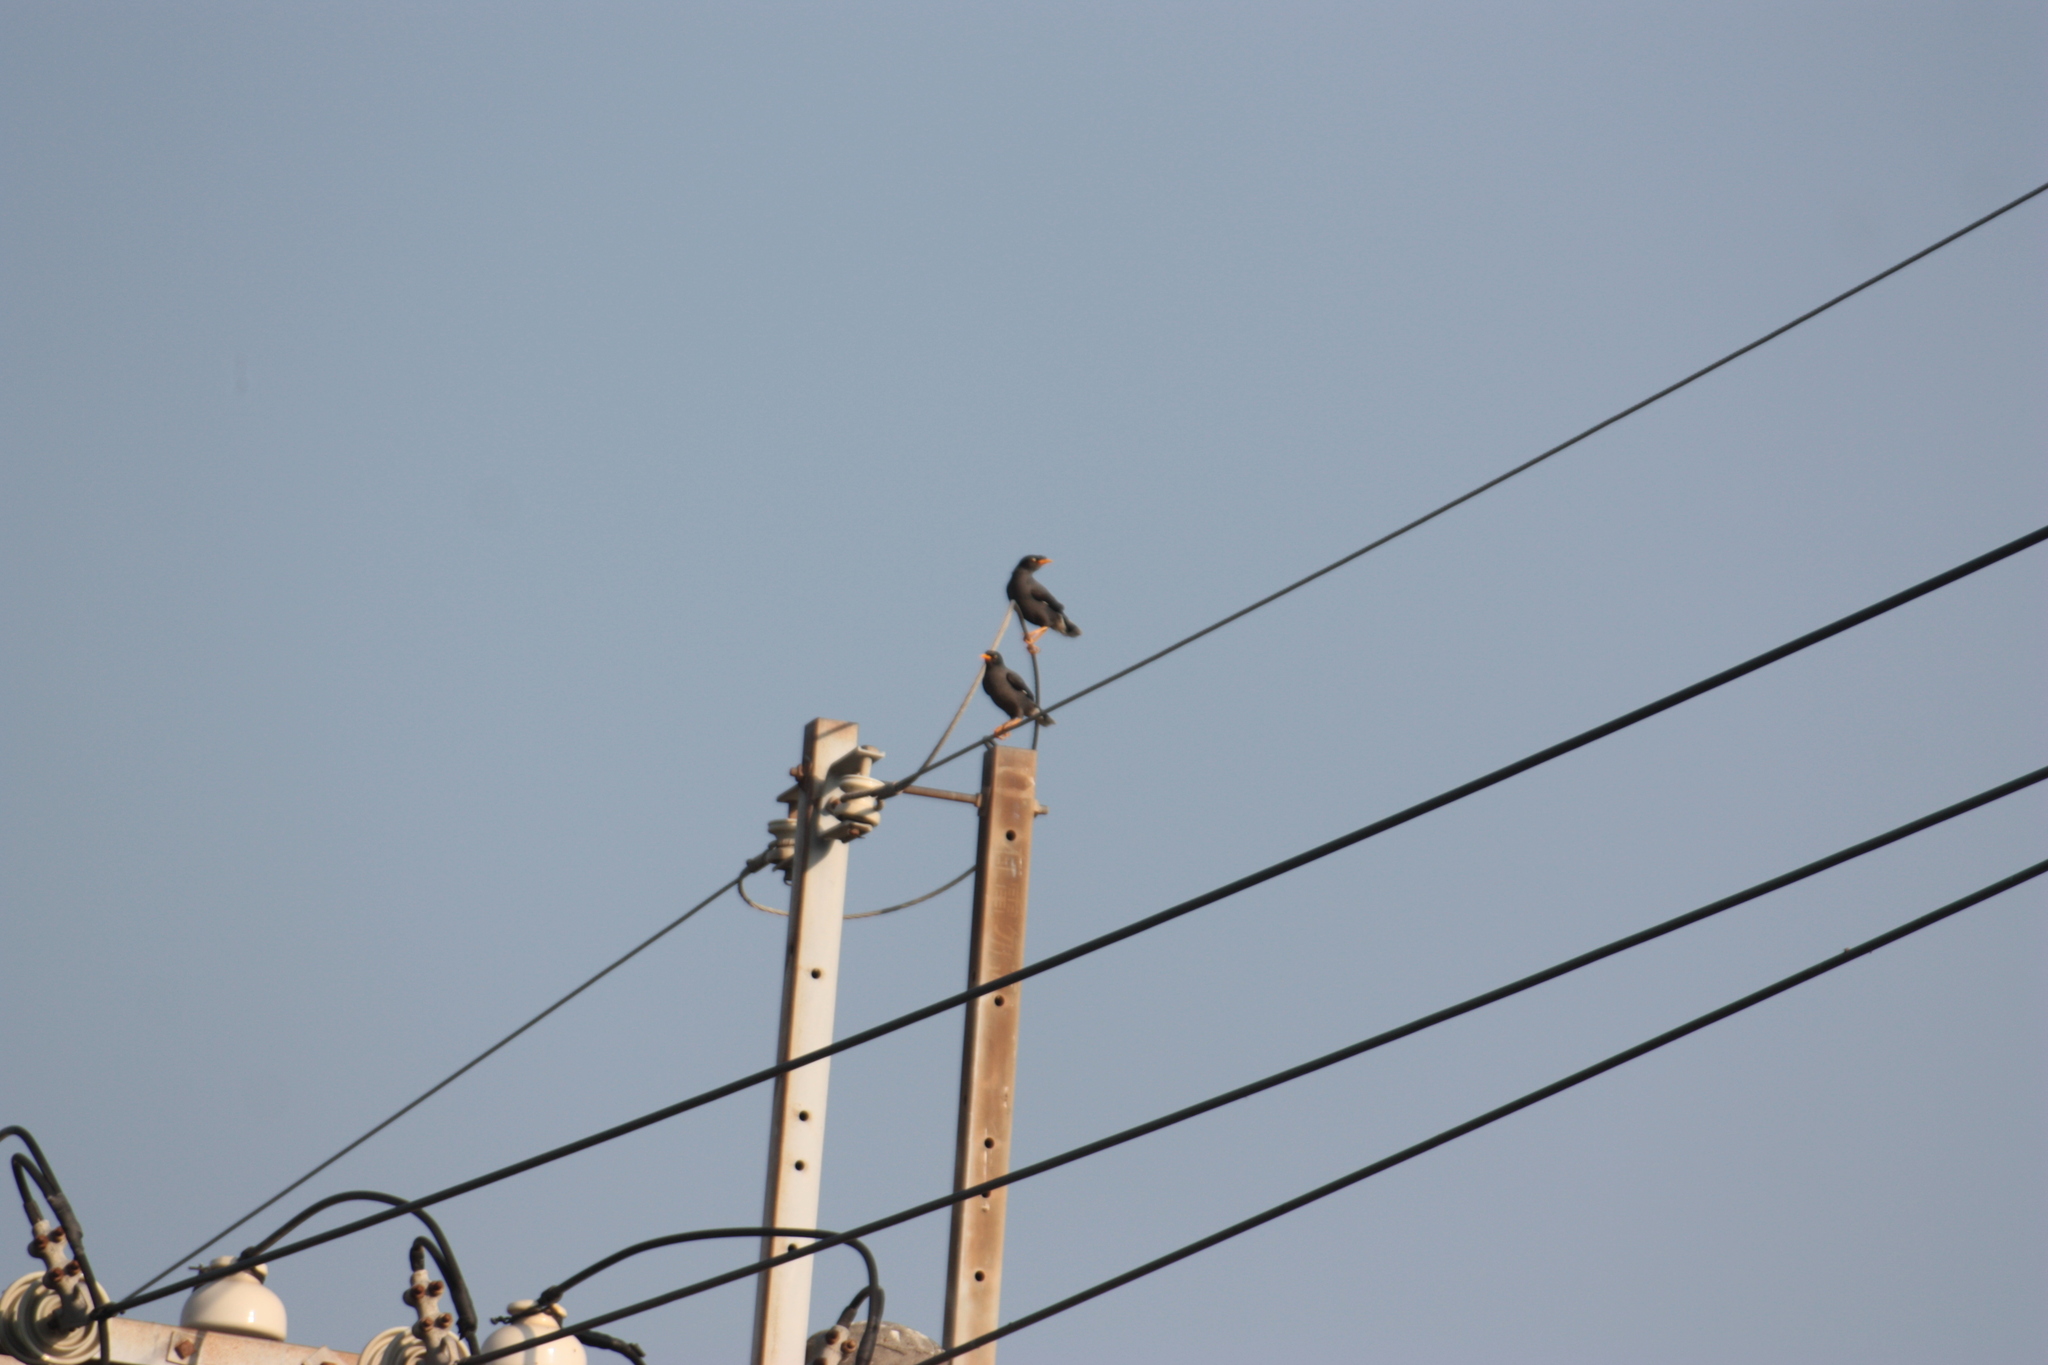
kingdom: Animalia
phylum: Chordata
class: Aves
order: Passeriformes
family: Sturnidae
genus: Acridotheres
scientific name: Acridotheres javanicus
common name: Javan myna
